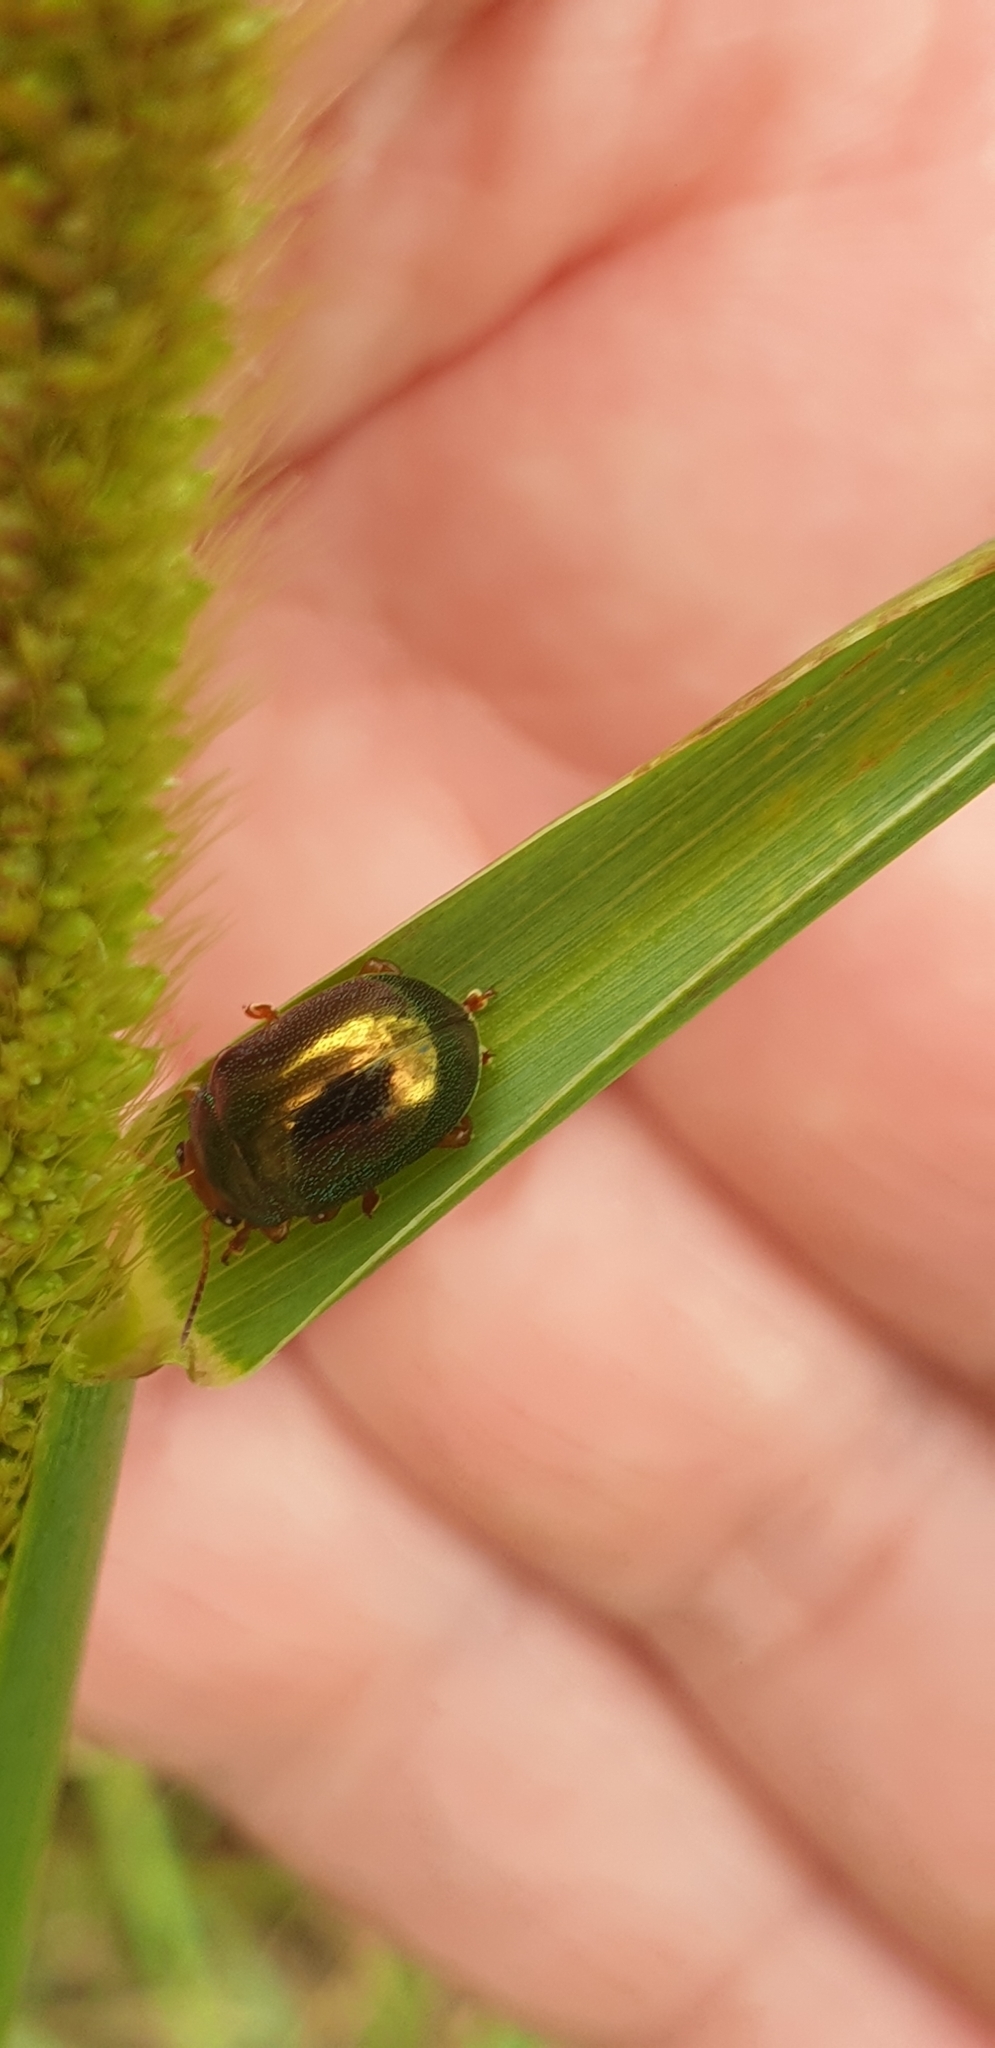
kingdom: Animalia
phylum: Arthropoda
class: Insecta
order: Coleoptera
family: Chrysomelidae
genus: Calomela
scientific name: Calomela
